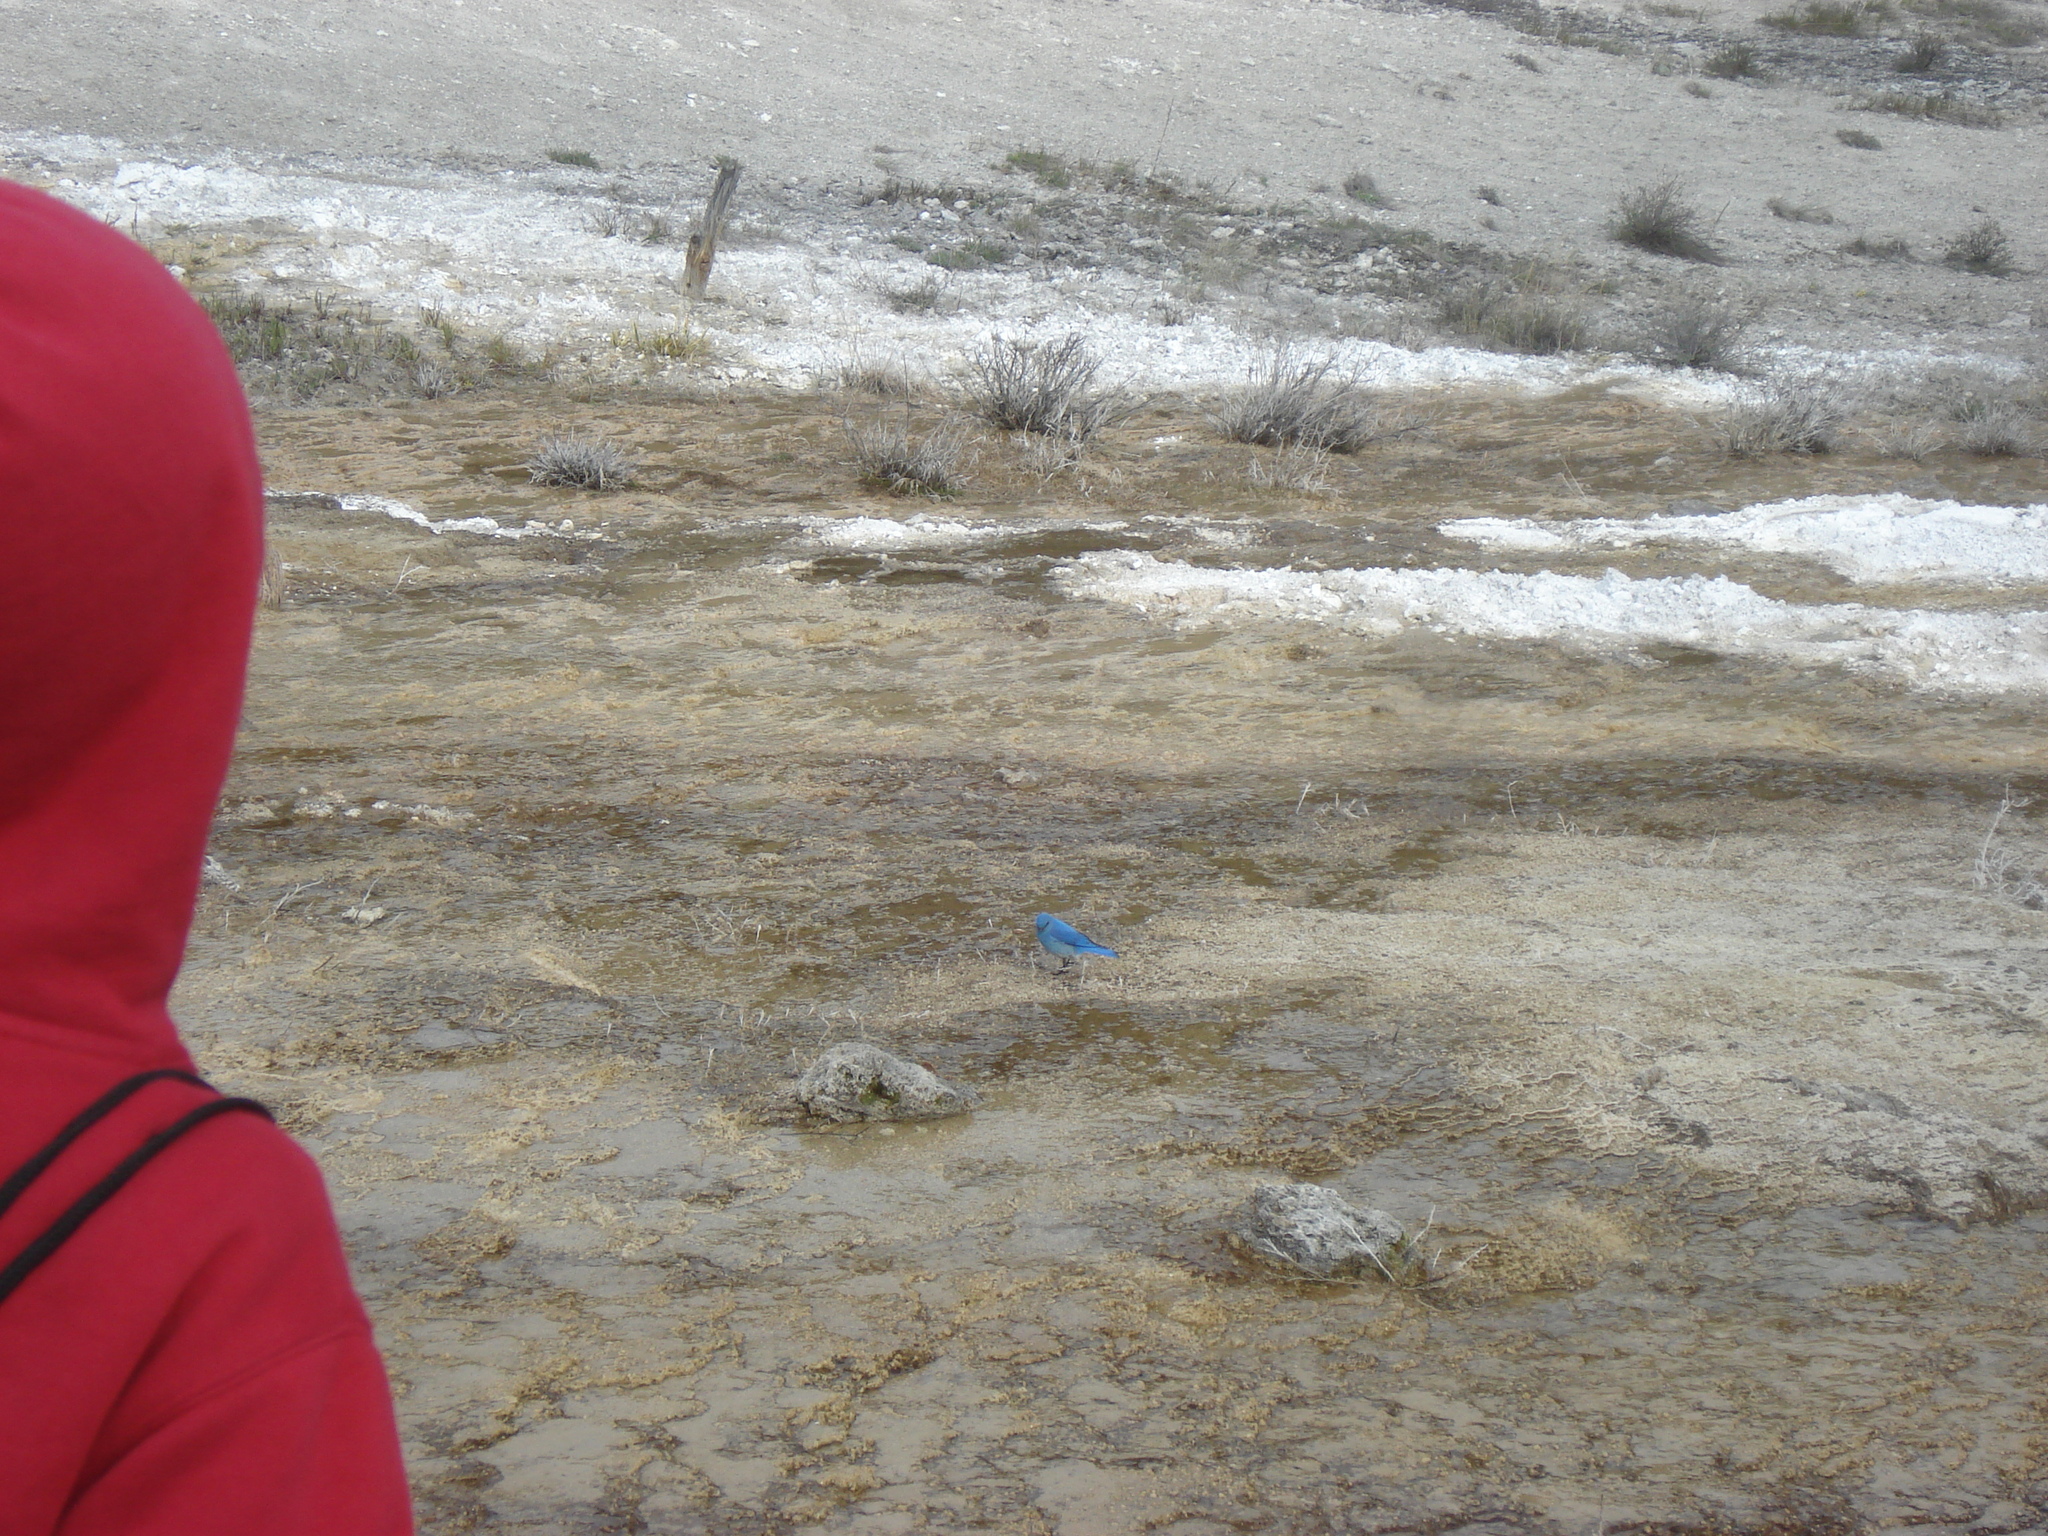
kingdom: Animalia
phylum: Chordata
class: Aves
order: Passeriformes
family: Turdidae
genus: Sialia
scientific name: Sialia currucoides
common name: Mountain bluebird
